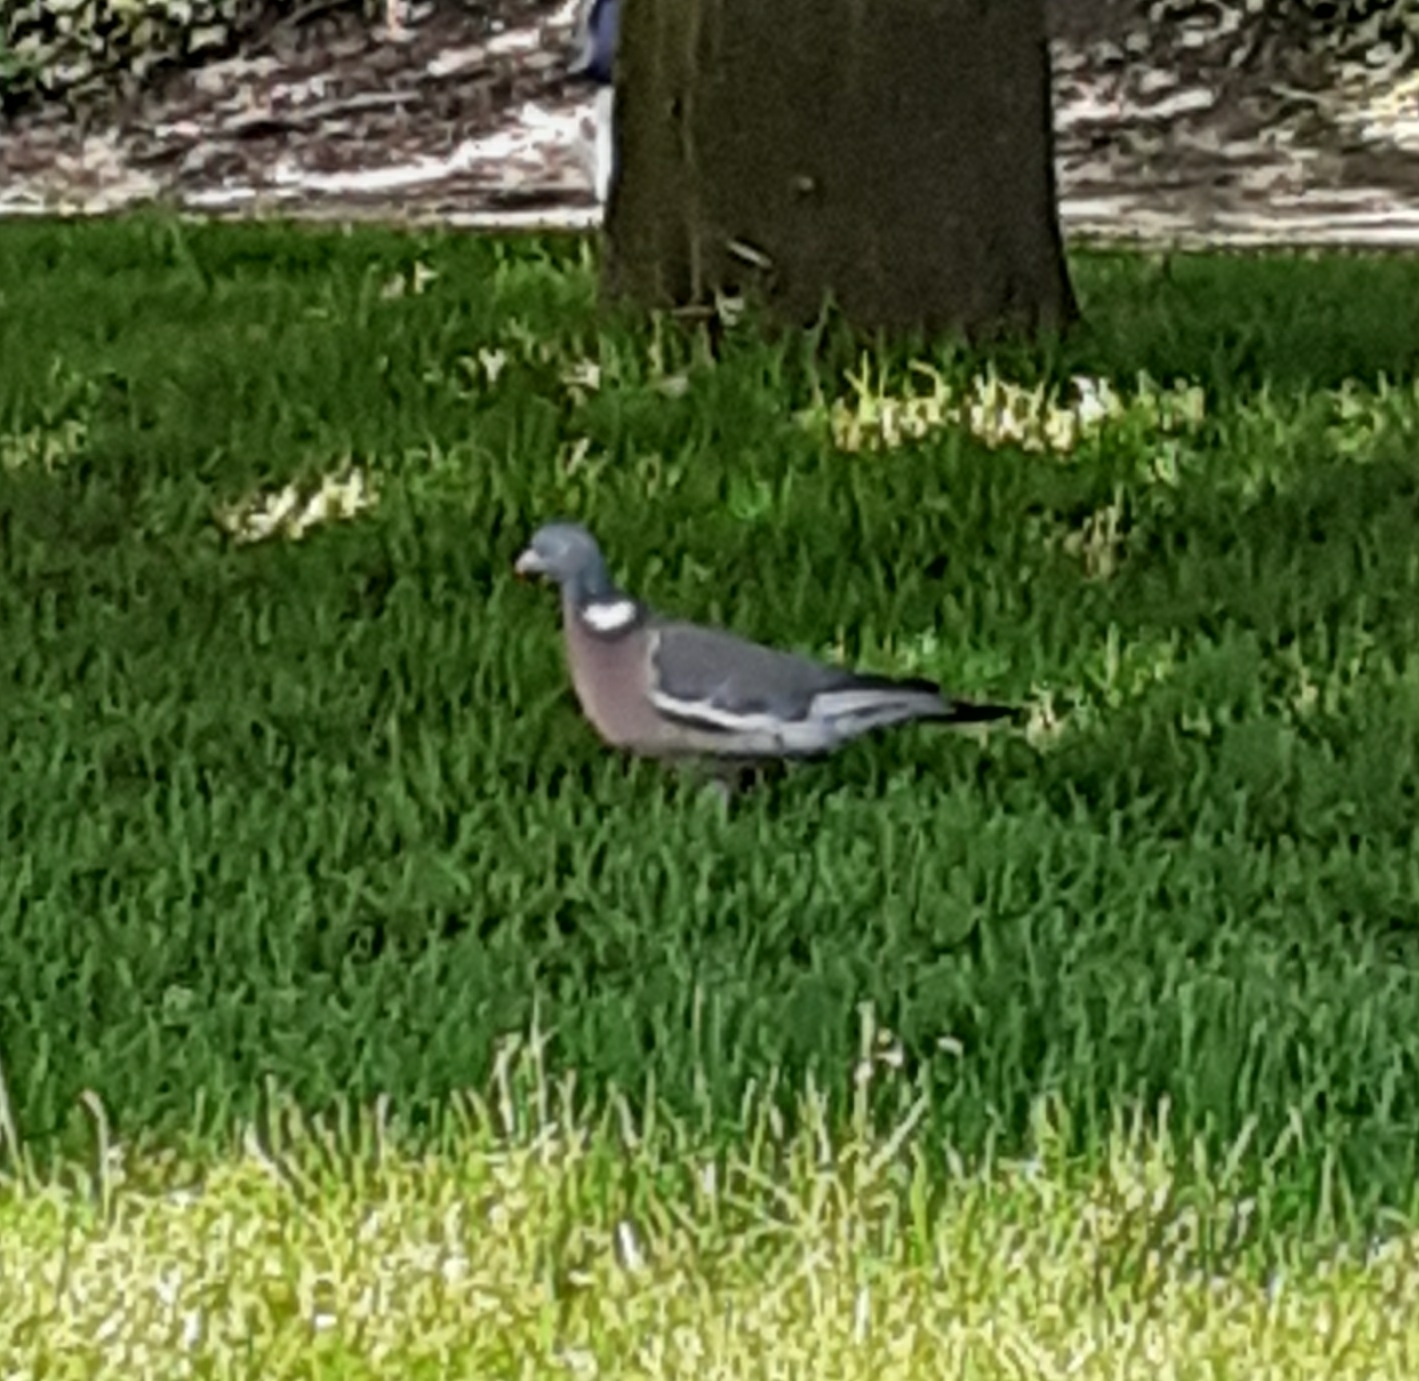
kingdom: Animalia
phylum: Chordata
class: Aves
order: Columbiformes
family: Columbidae
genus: Columba
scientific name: Columba palumbus
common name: Common wood pigeon
